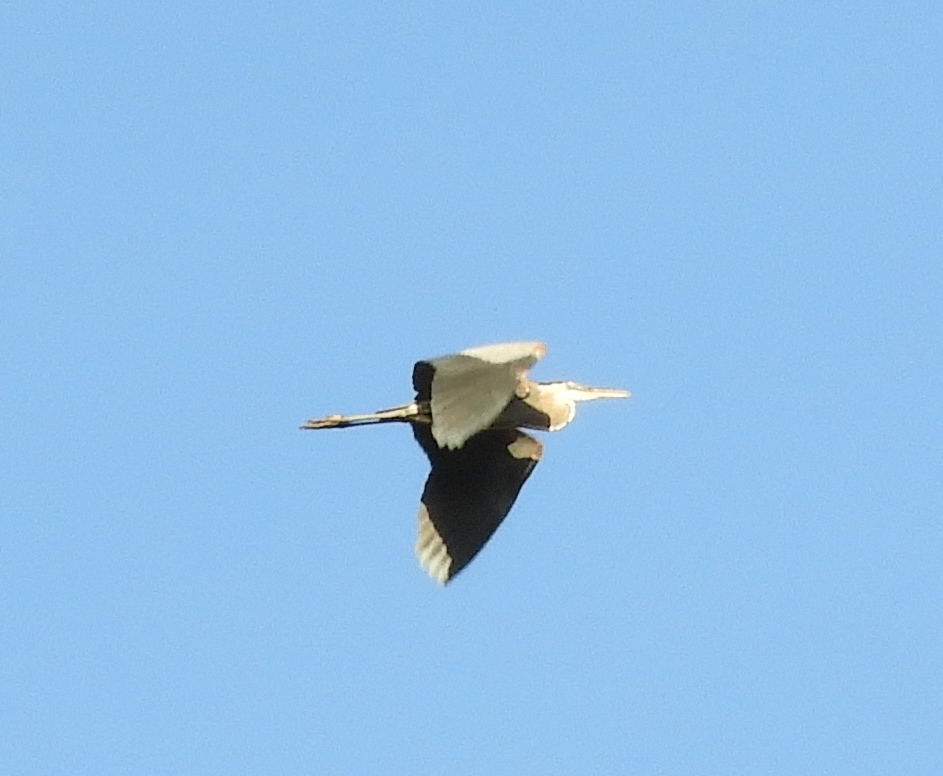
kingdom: Animalia
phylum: Chordata
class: Aves
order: Pelecaniformes
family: Ardeidae
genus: Ardea
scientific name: Ardea herodias
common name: Great blue heron
